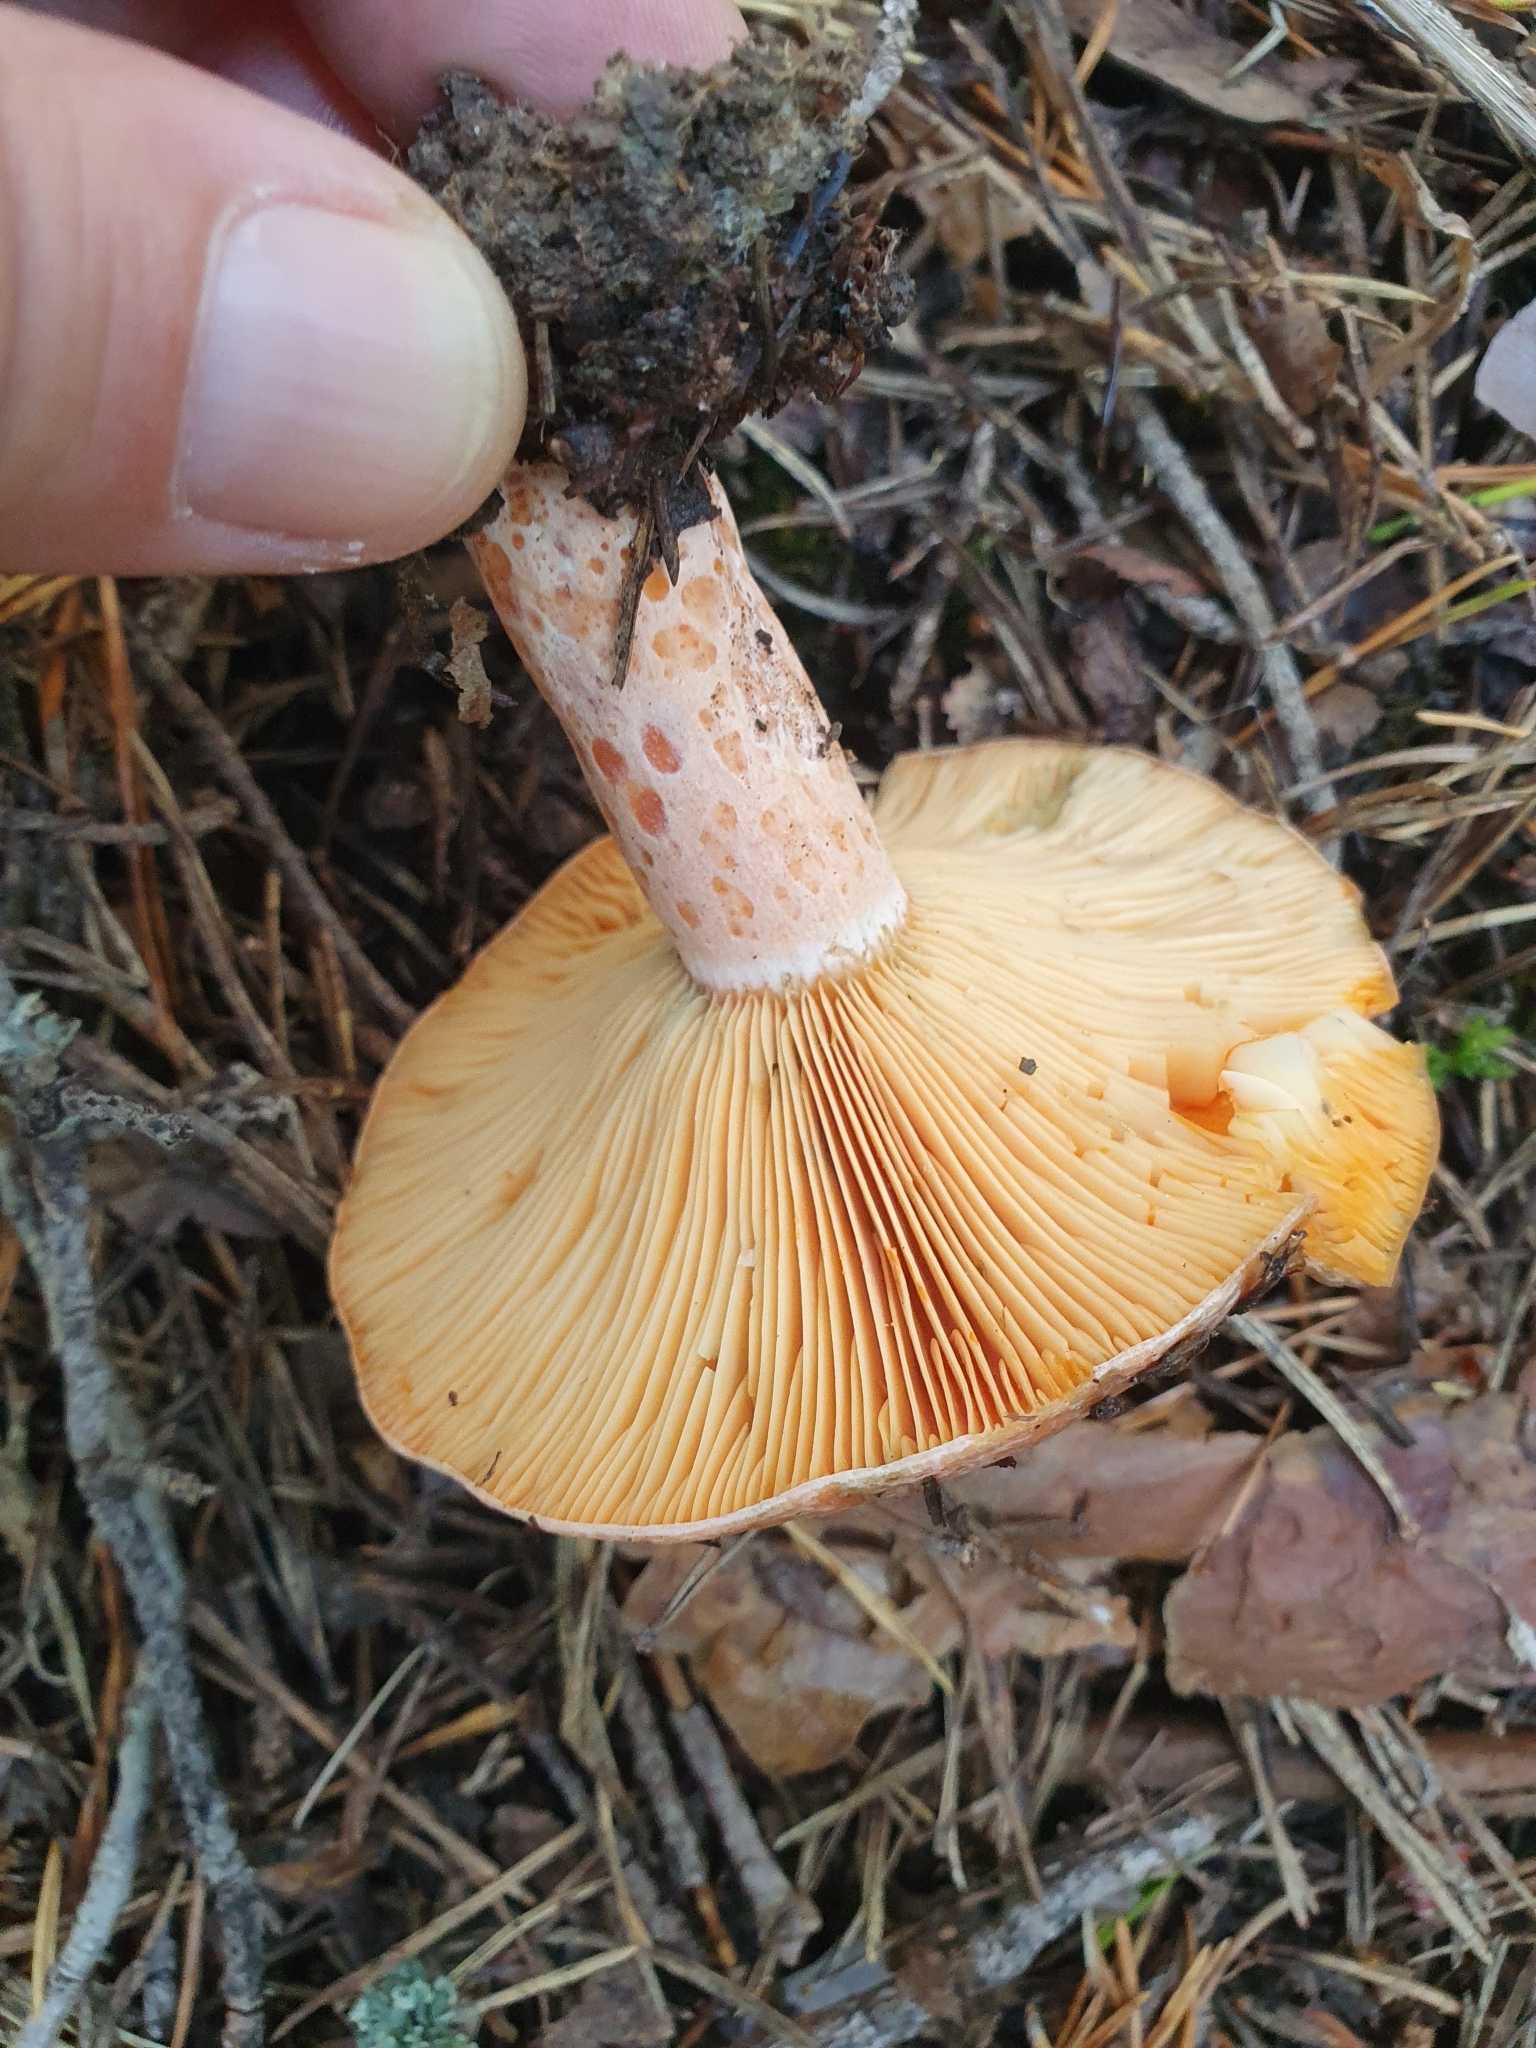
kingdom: Fungi
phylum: Basidiomycota
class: Agaricomycetes
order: Russulales
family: Russulaceae
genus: Lactarius
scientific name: Lactarius deliciosus
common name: Saffron milk-cap
